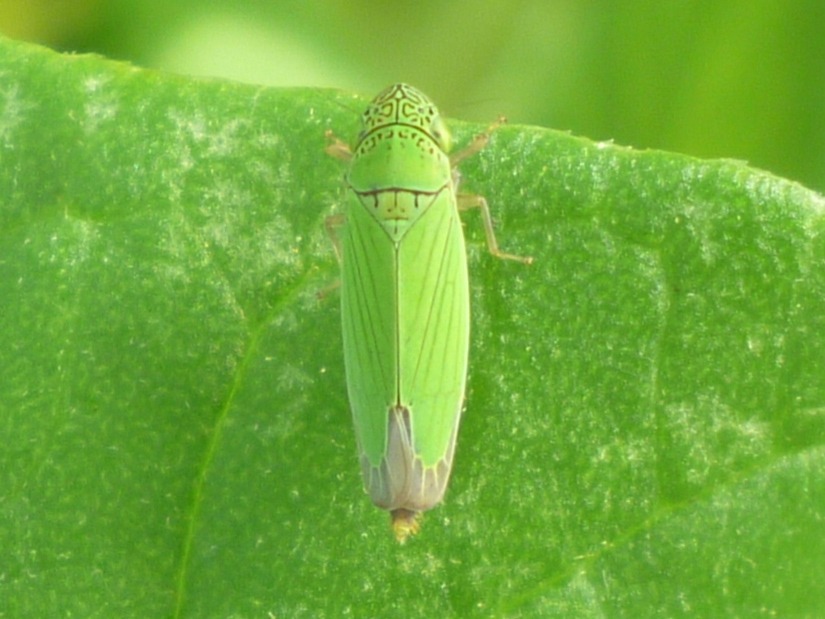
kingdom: Animalia
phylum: Arthropoda
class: Insecta
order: Hemiptera
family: Cicadellidae
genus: Hortensia
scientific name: Hortensia similis
